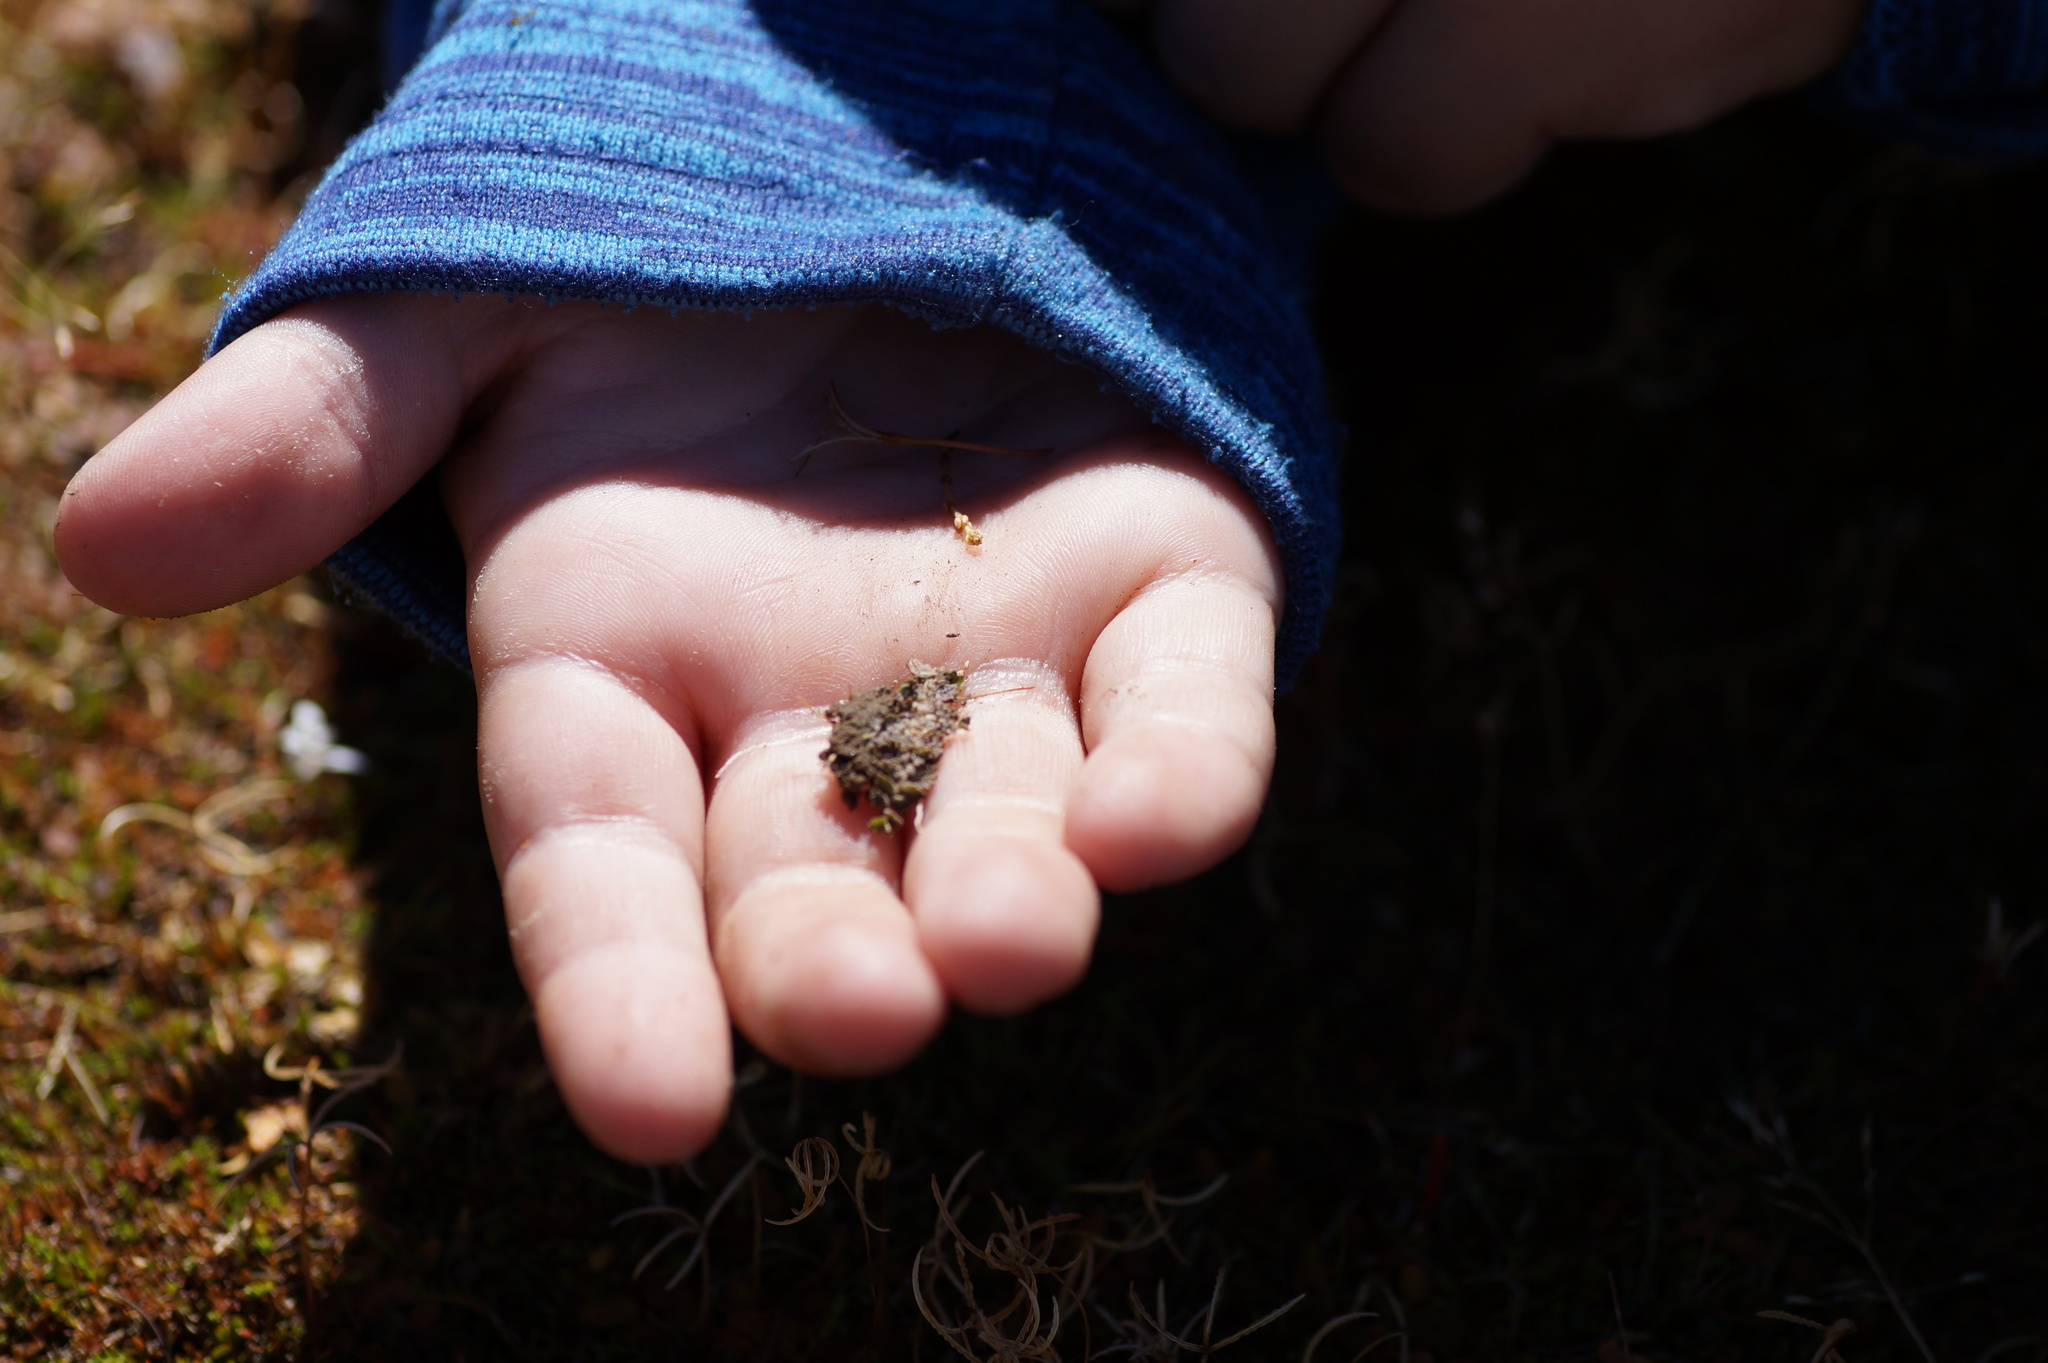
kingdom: Plantae
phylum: Tracheophyta
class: Magnoliopsida
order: Asterales
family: Campanulaceae
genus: Lobelia
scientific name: Lobelia perpusilla
